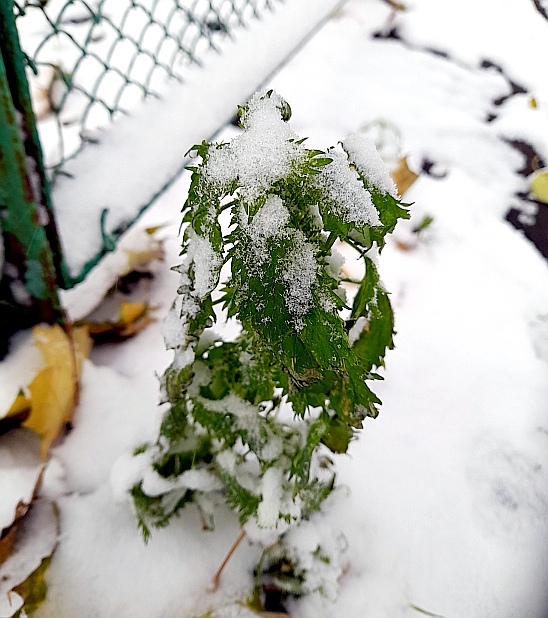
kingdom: Plantae
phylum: Tracheophyta
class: Magnoliopsida
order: Rosales
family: Urticaceae
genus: Urtica
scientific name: Urtica urens
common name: Dwarf nettle
